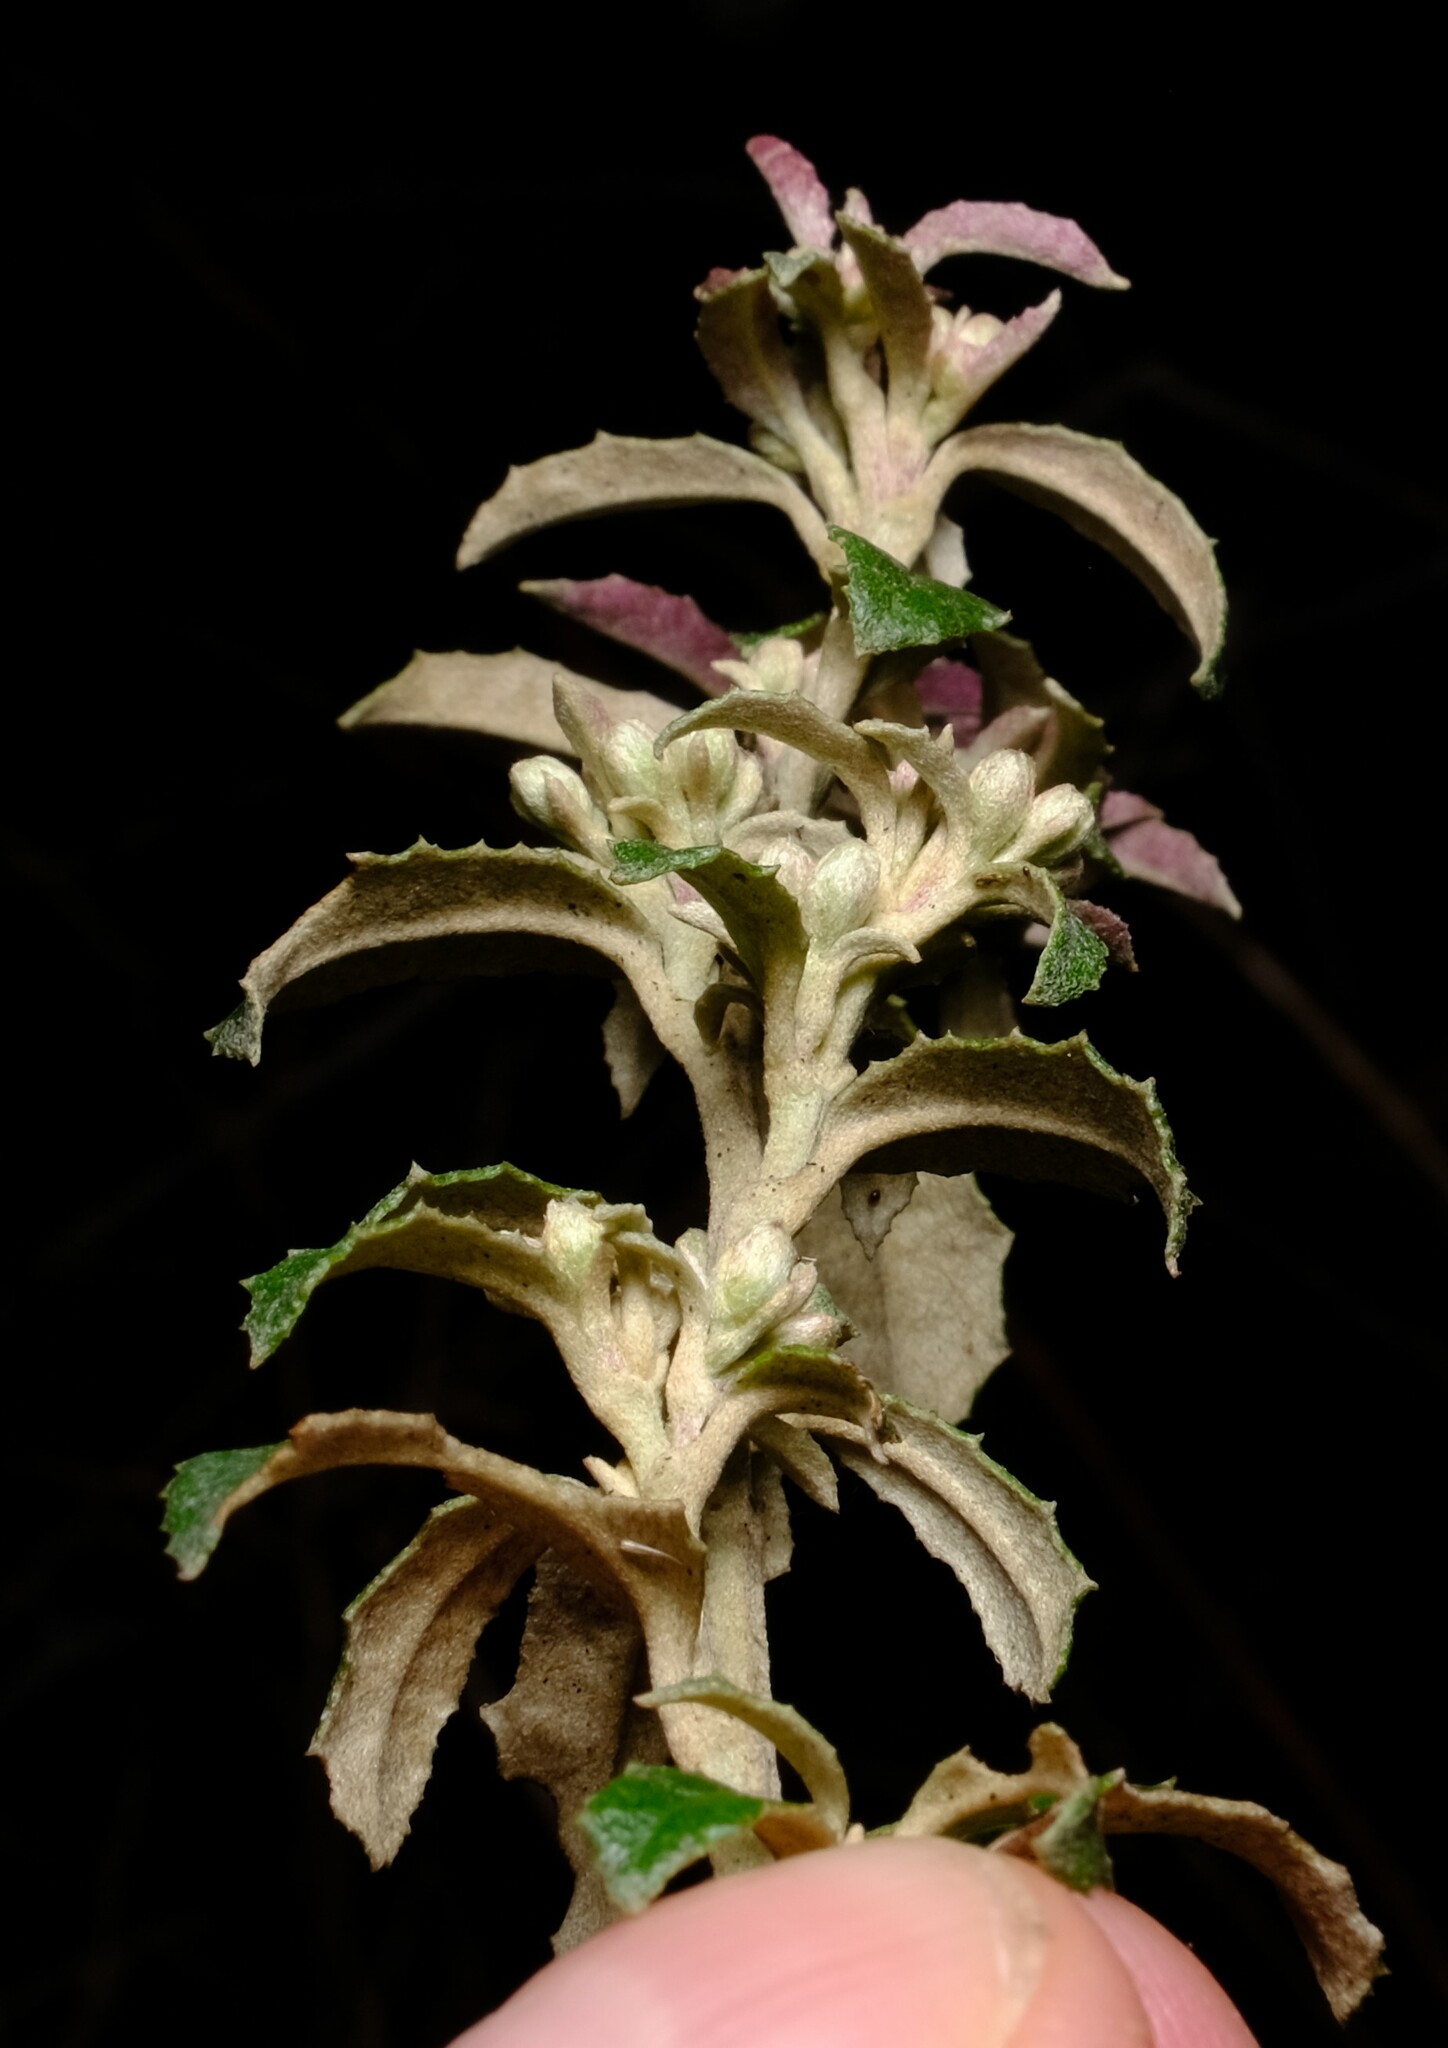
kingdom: Plantae
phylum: Tracheophyta
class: Magnoliopsida
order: Asterales
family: Asteraceae
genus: Olearia
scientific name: Olearia erubescens
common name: Moth daisybush
